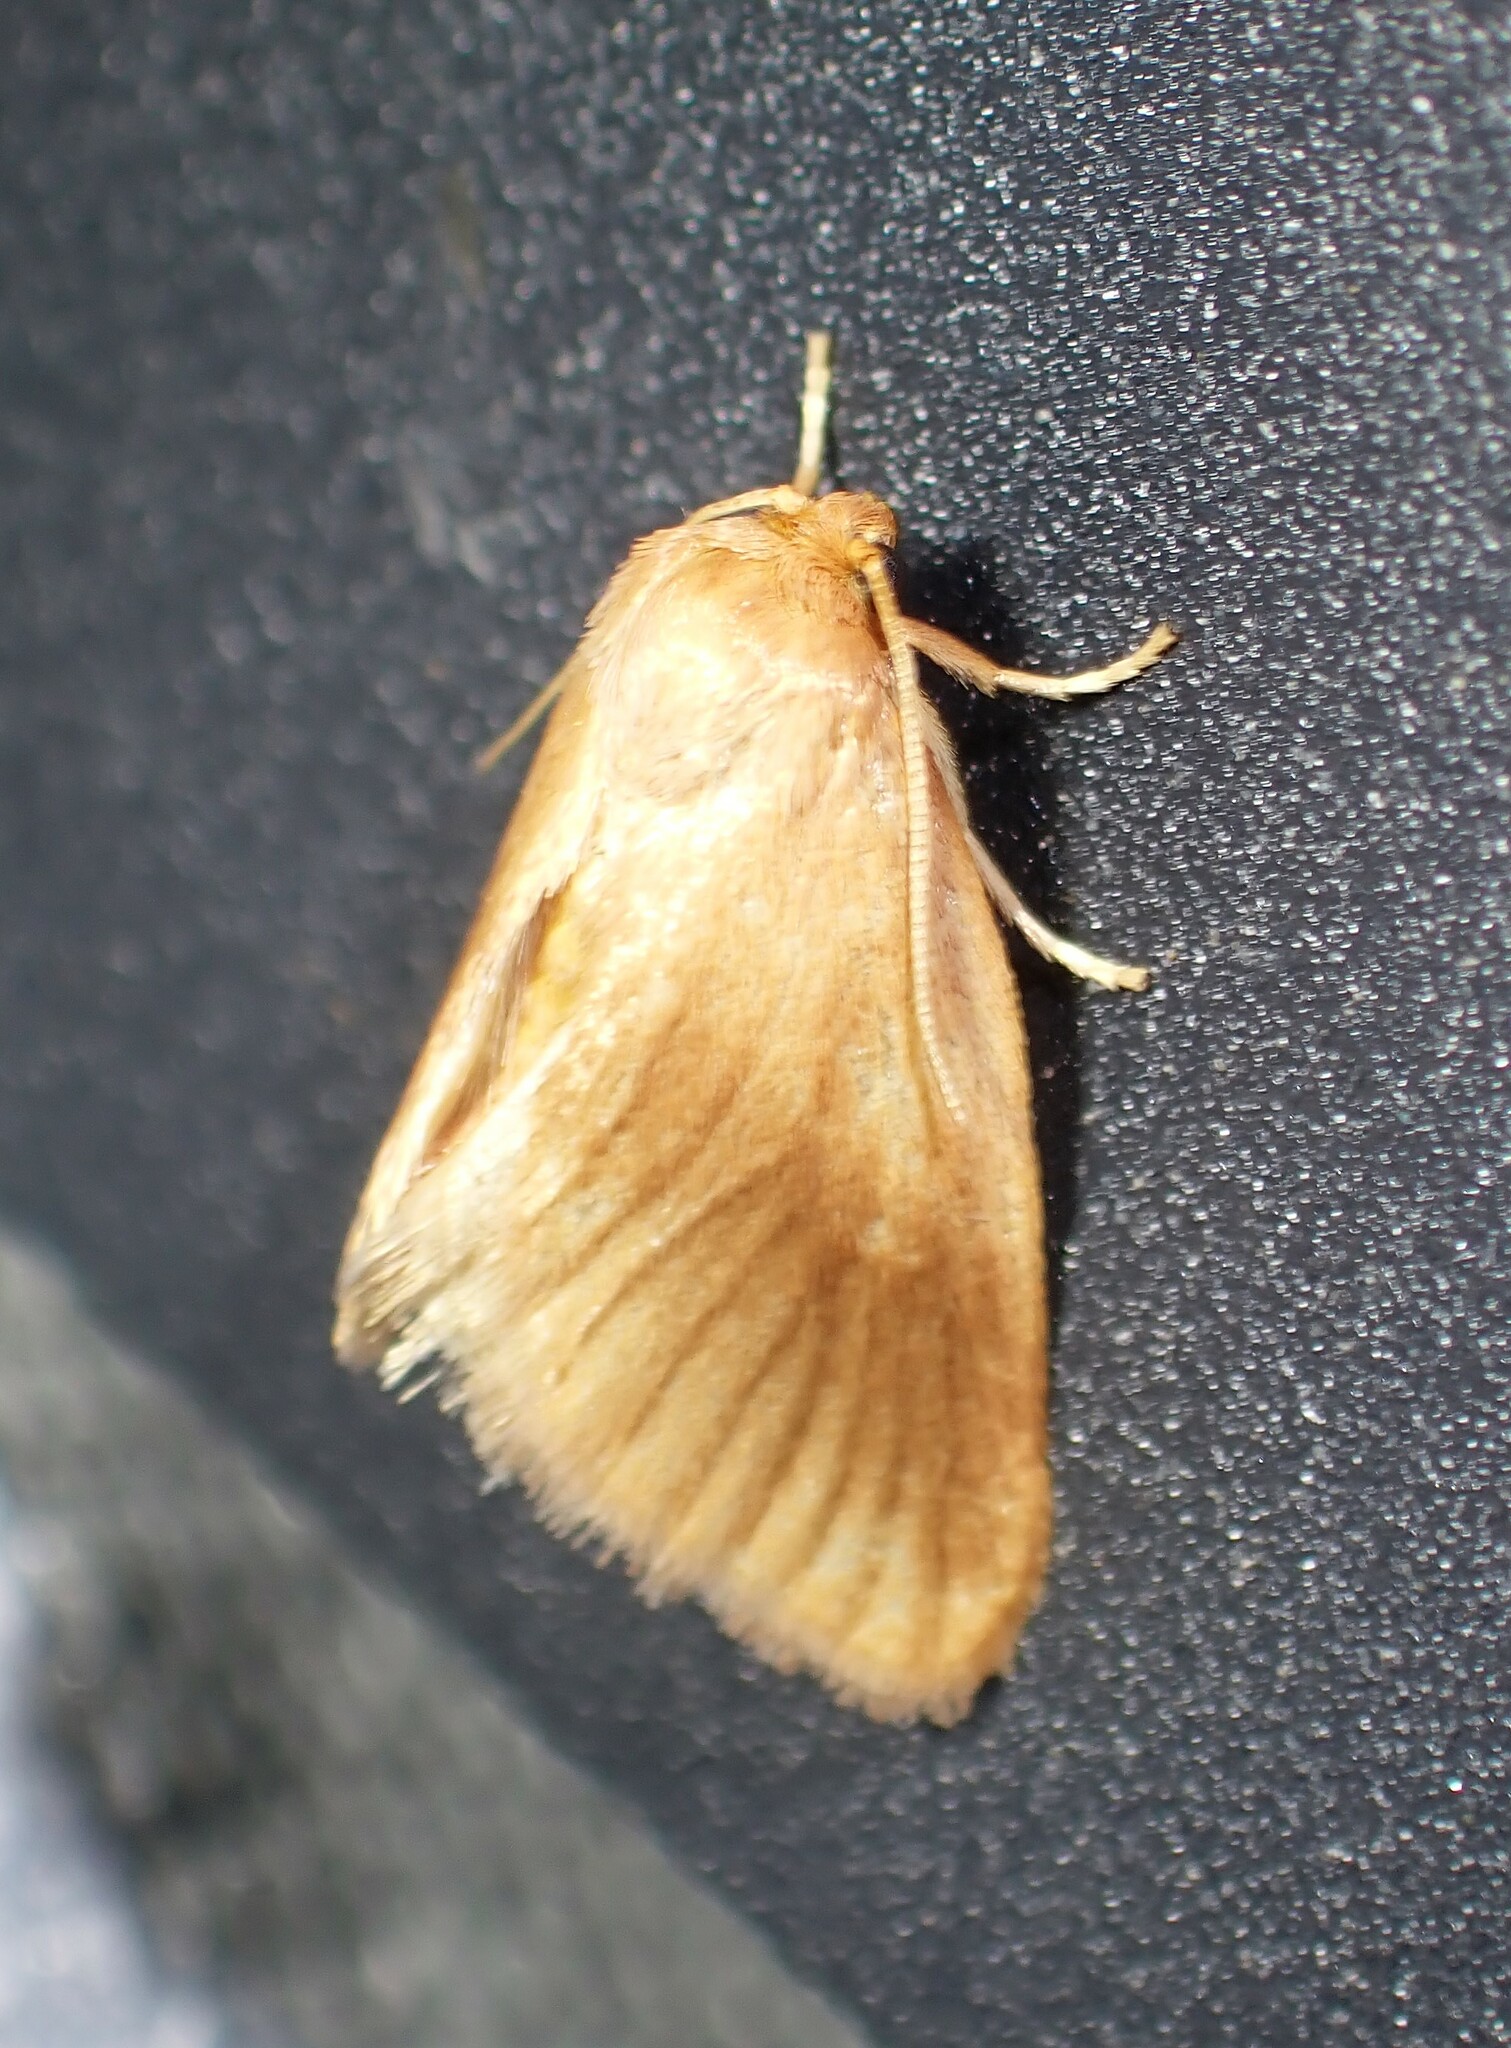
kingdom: Animalia
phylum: Arthropoda
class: Insecta
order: Lepidoptera
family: Limacodidae
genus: Tortricidia
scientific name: Tortricidia testacea
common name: Early button slug moth
